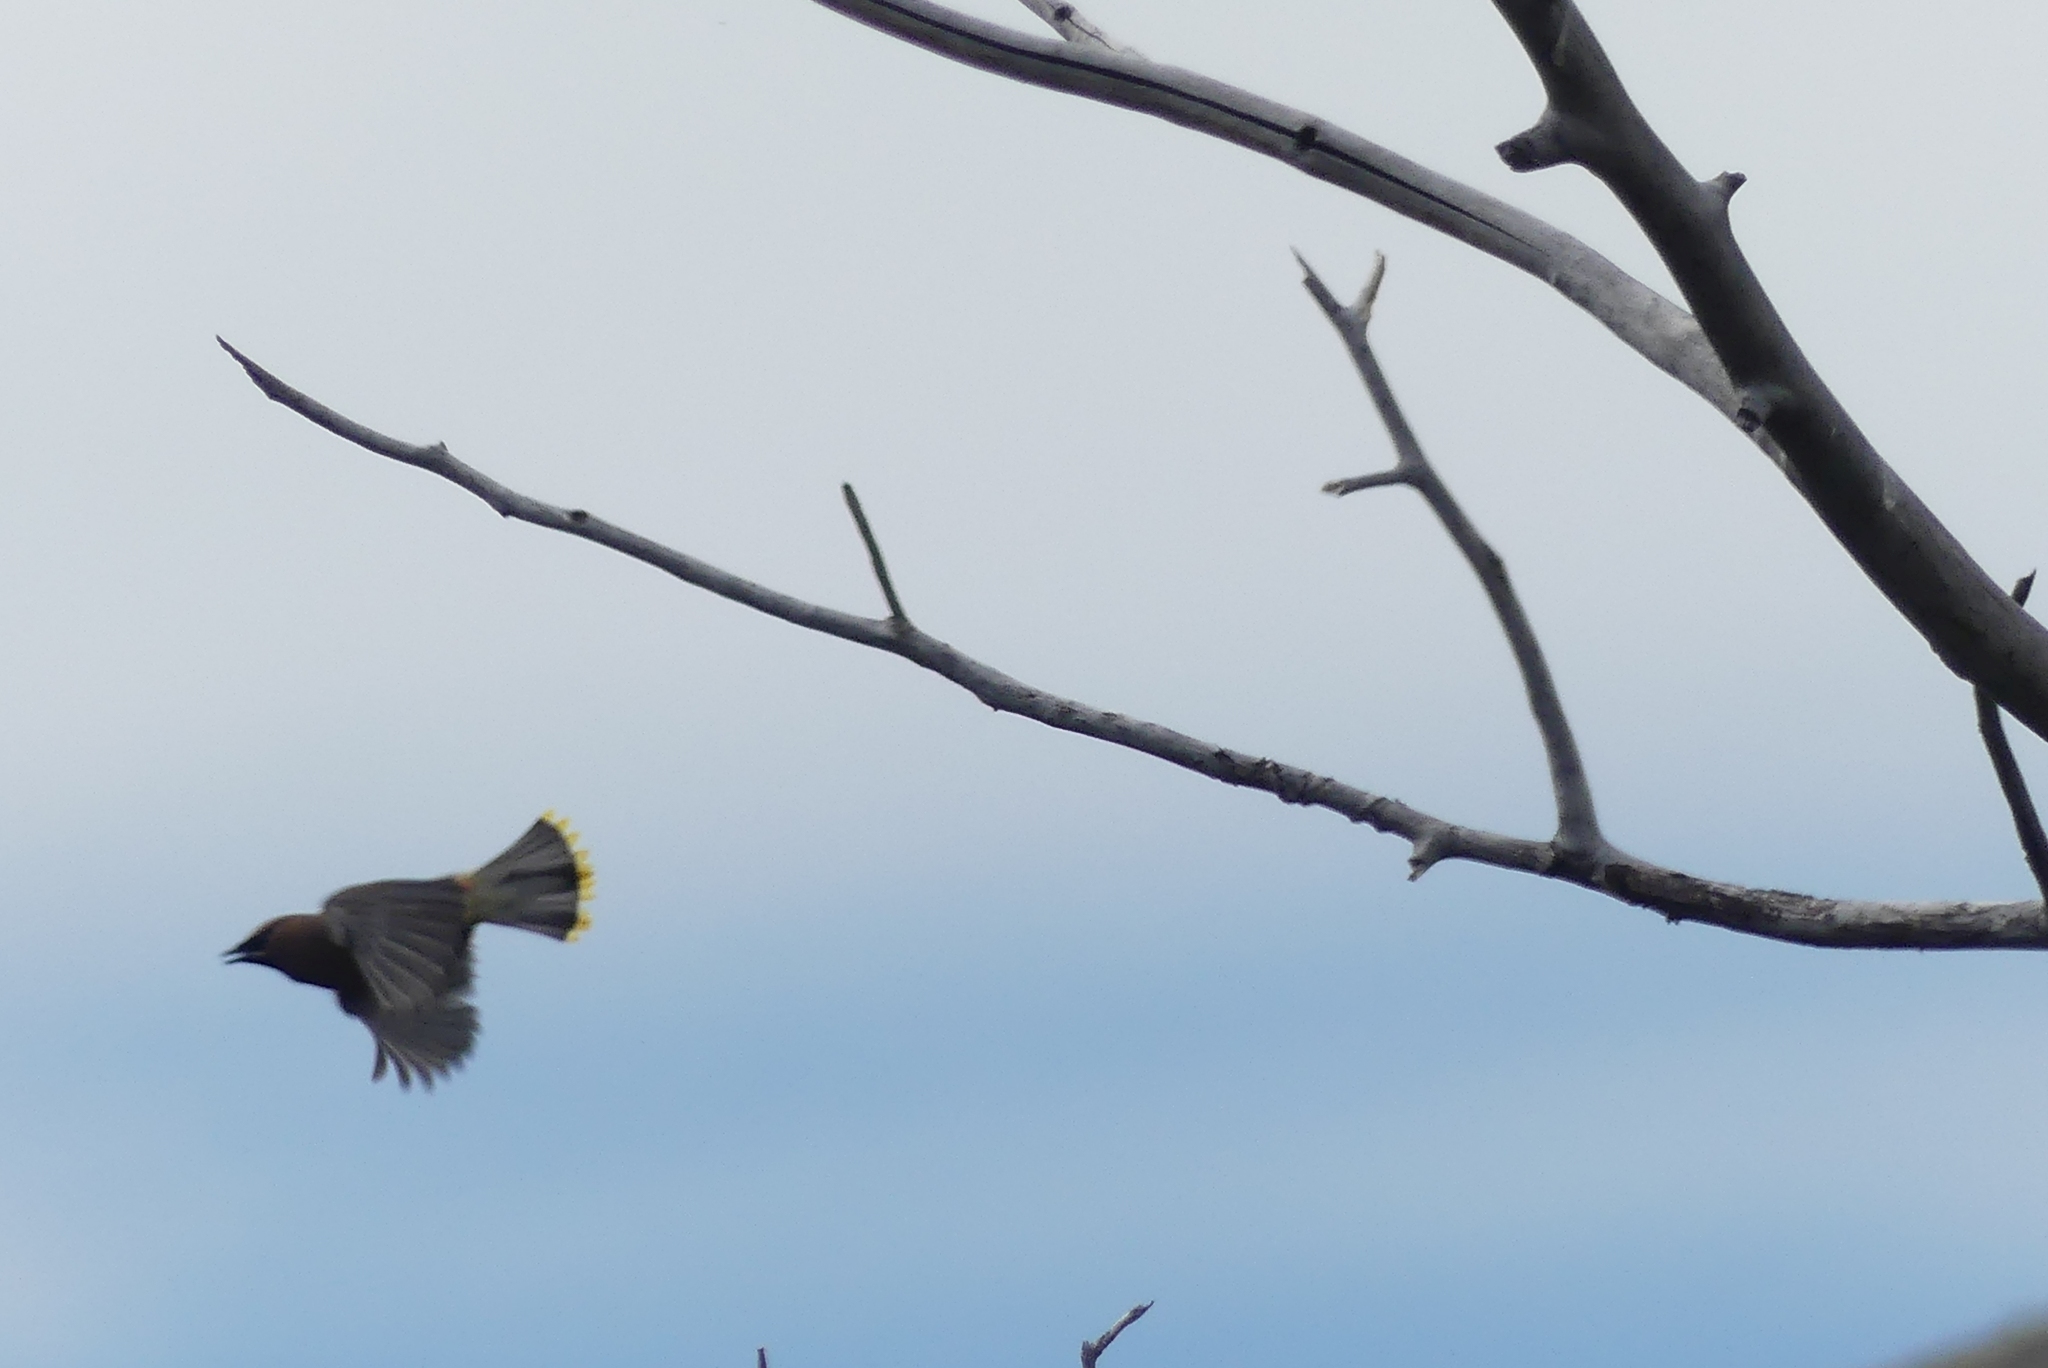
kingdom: Animalia
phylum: Chordata
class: Aves
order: Passeriformes
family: Bombycillidae
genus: Bombycilla
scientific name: Bombycilla cedrorum
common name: Cedar waxwing
